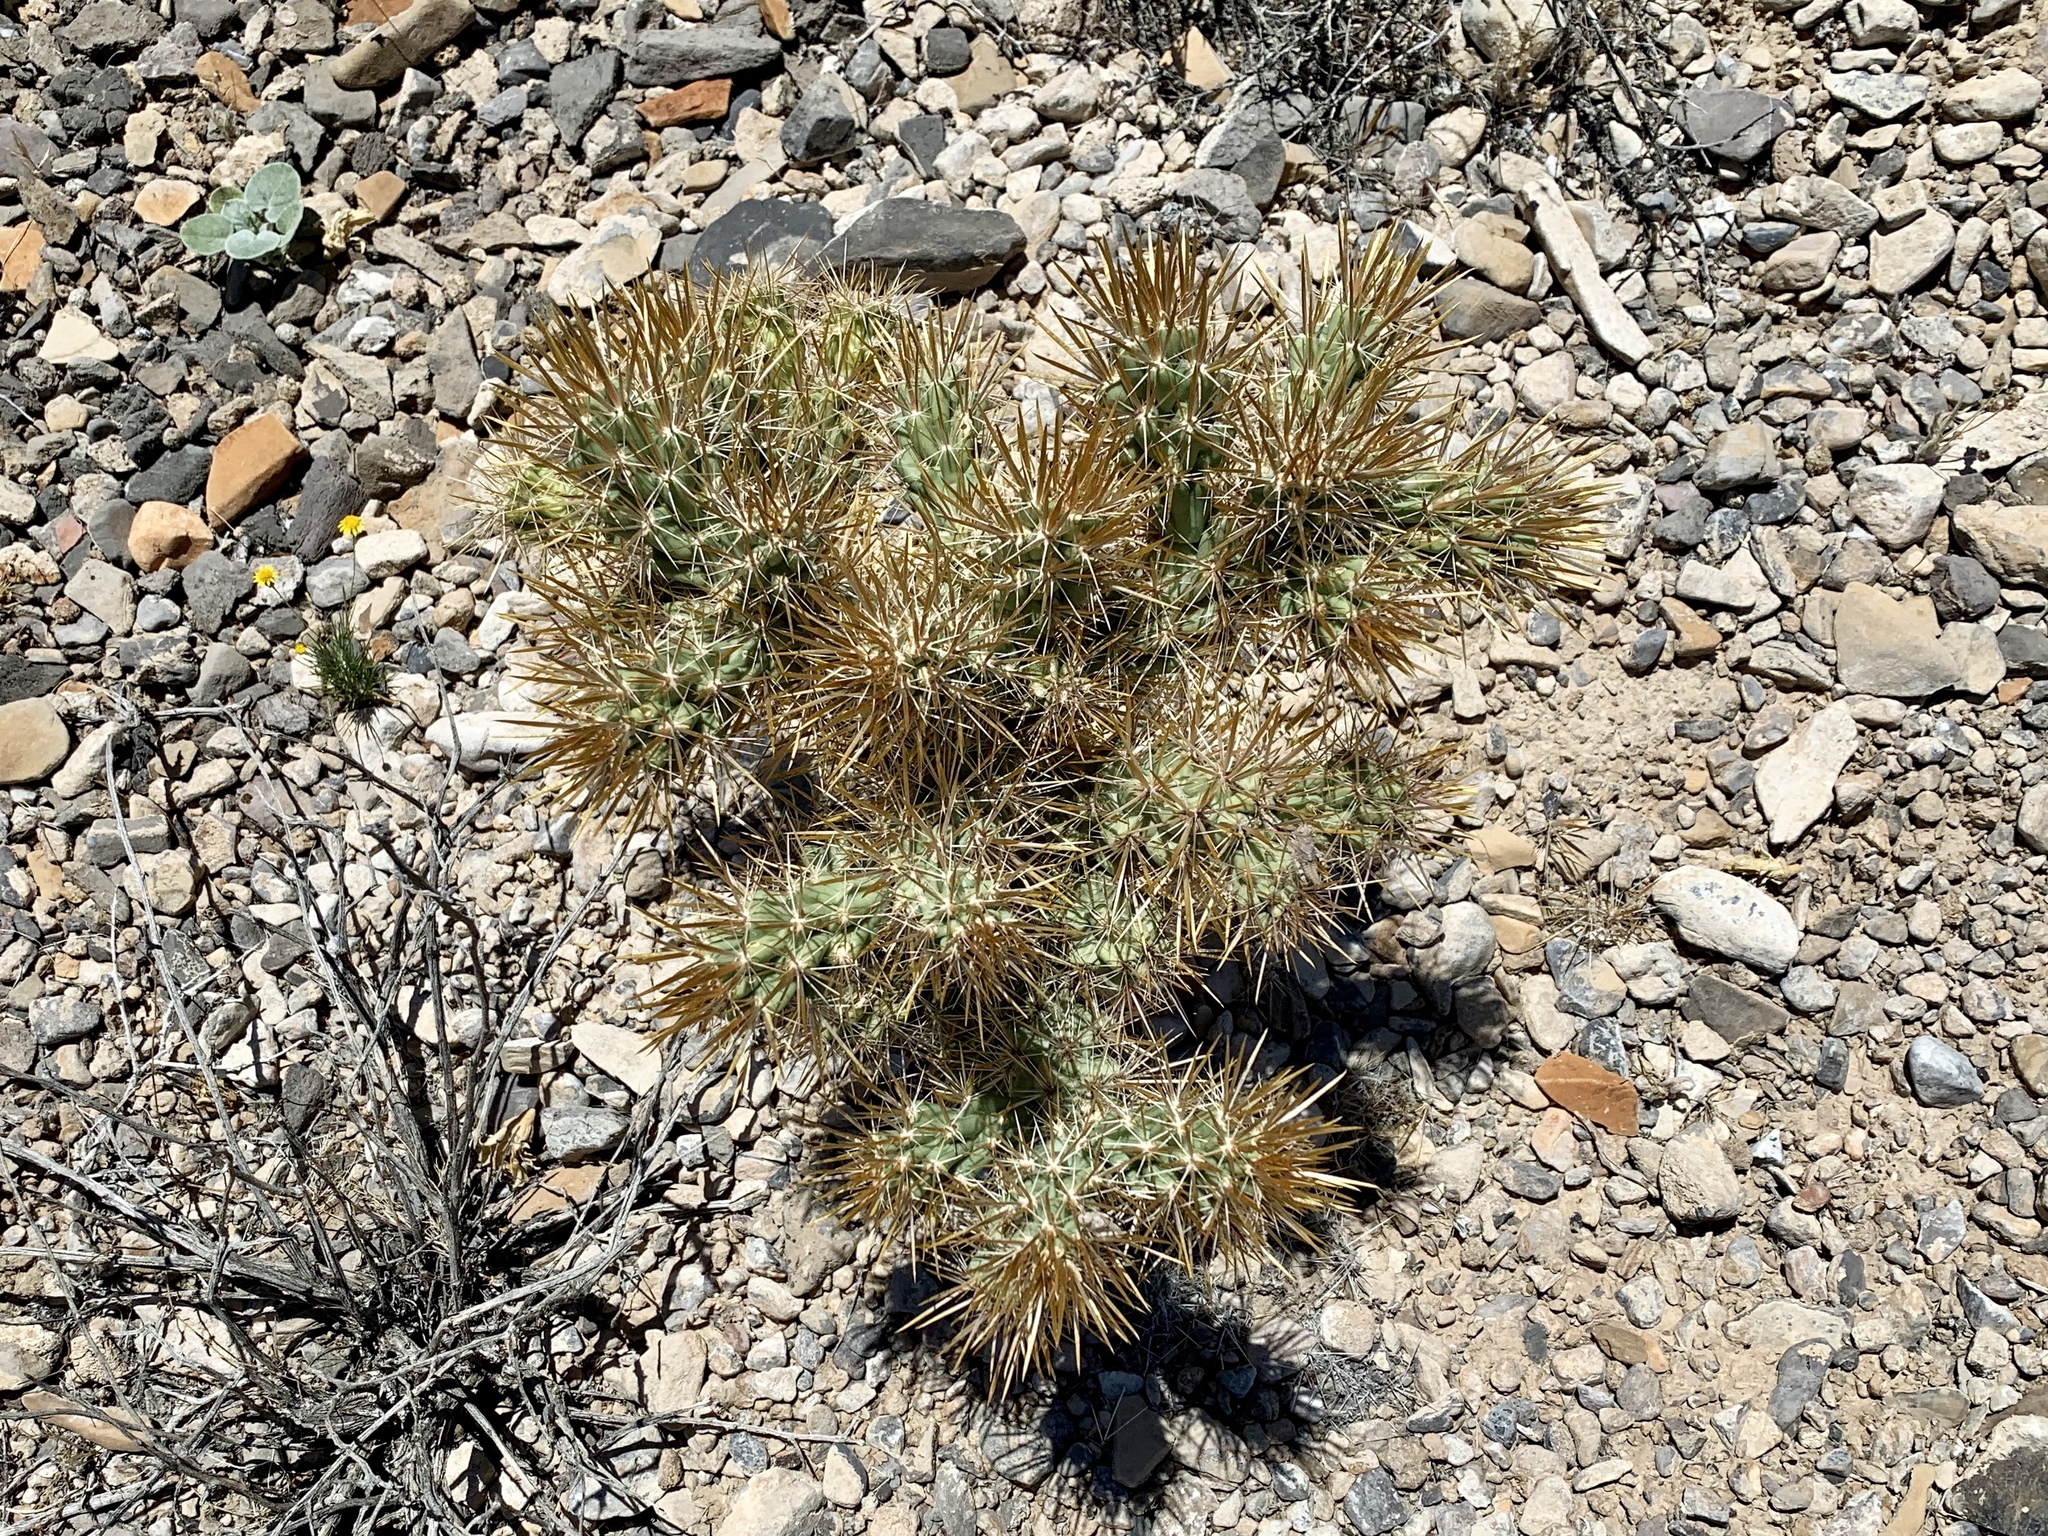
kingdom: Plantae
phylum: Tracheophyta
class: Magnoliopsida
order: Caryophyllales
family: Cactaceae
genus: Cylindropuntia
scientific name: Cylindropuntia echinocarpa
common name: Ground cholla
